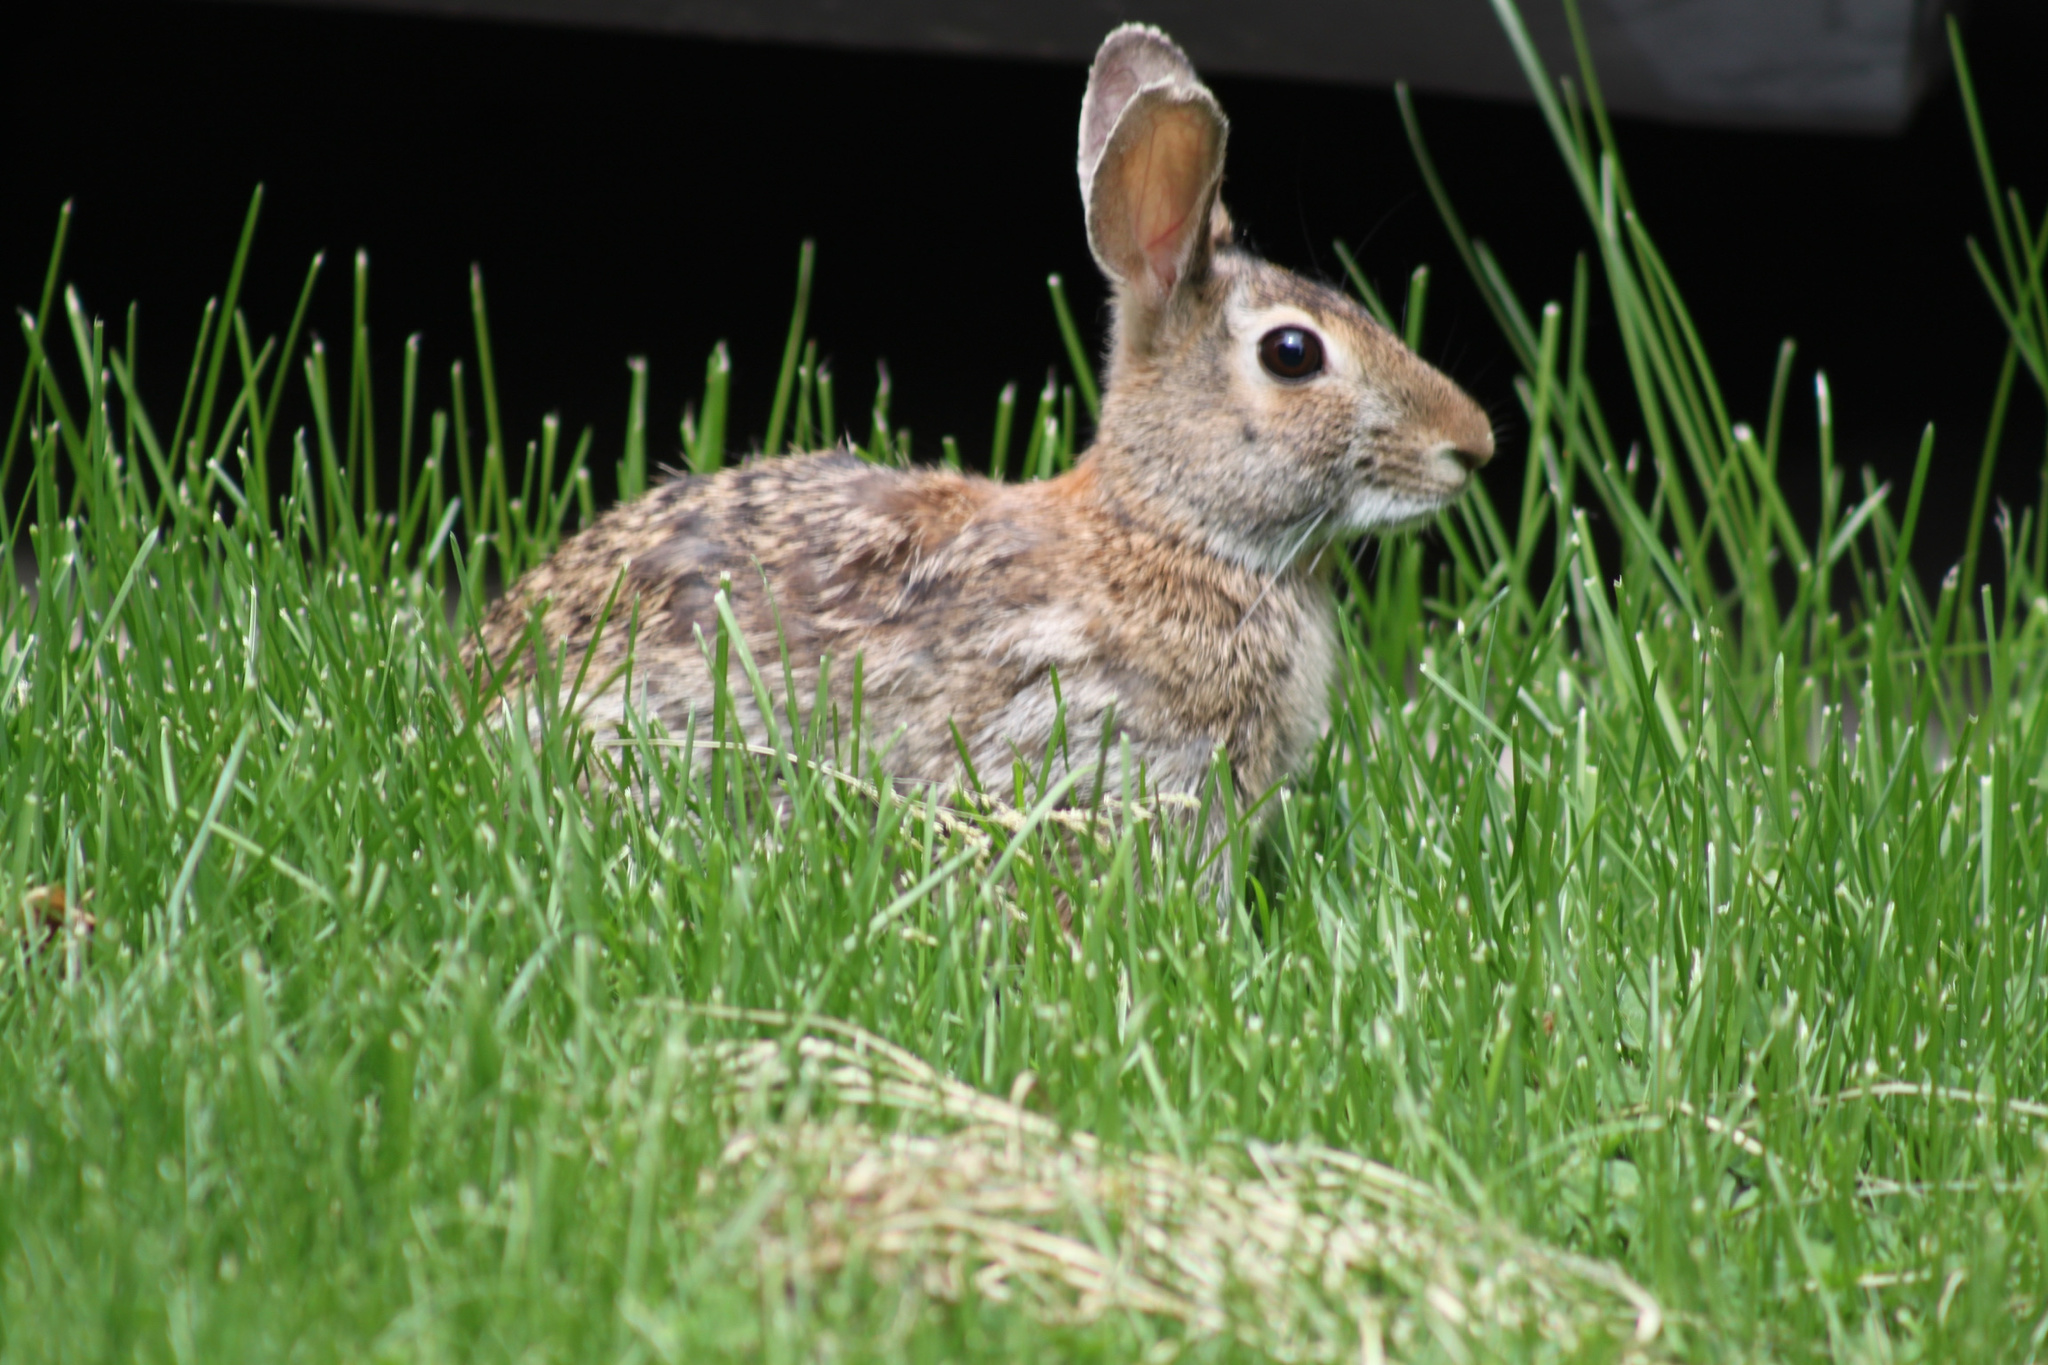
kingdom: Animalia
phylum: Chordata
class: Mammalia
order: Lagomorpha
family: Leporidae
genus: Sylvilagus
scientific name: Sylvilagus floridanus
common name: Eastern cottontail
